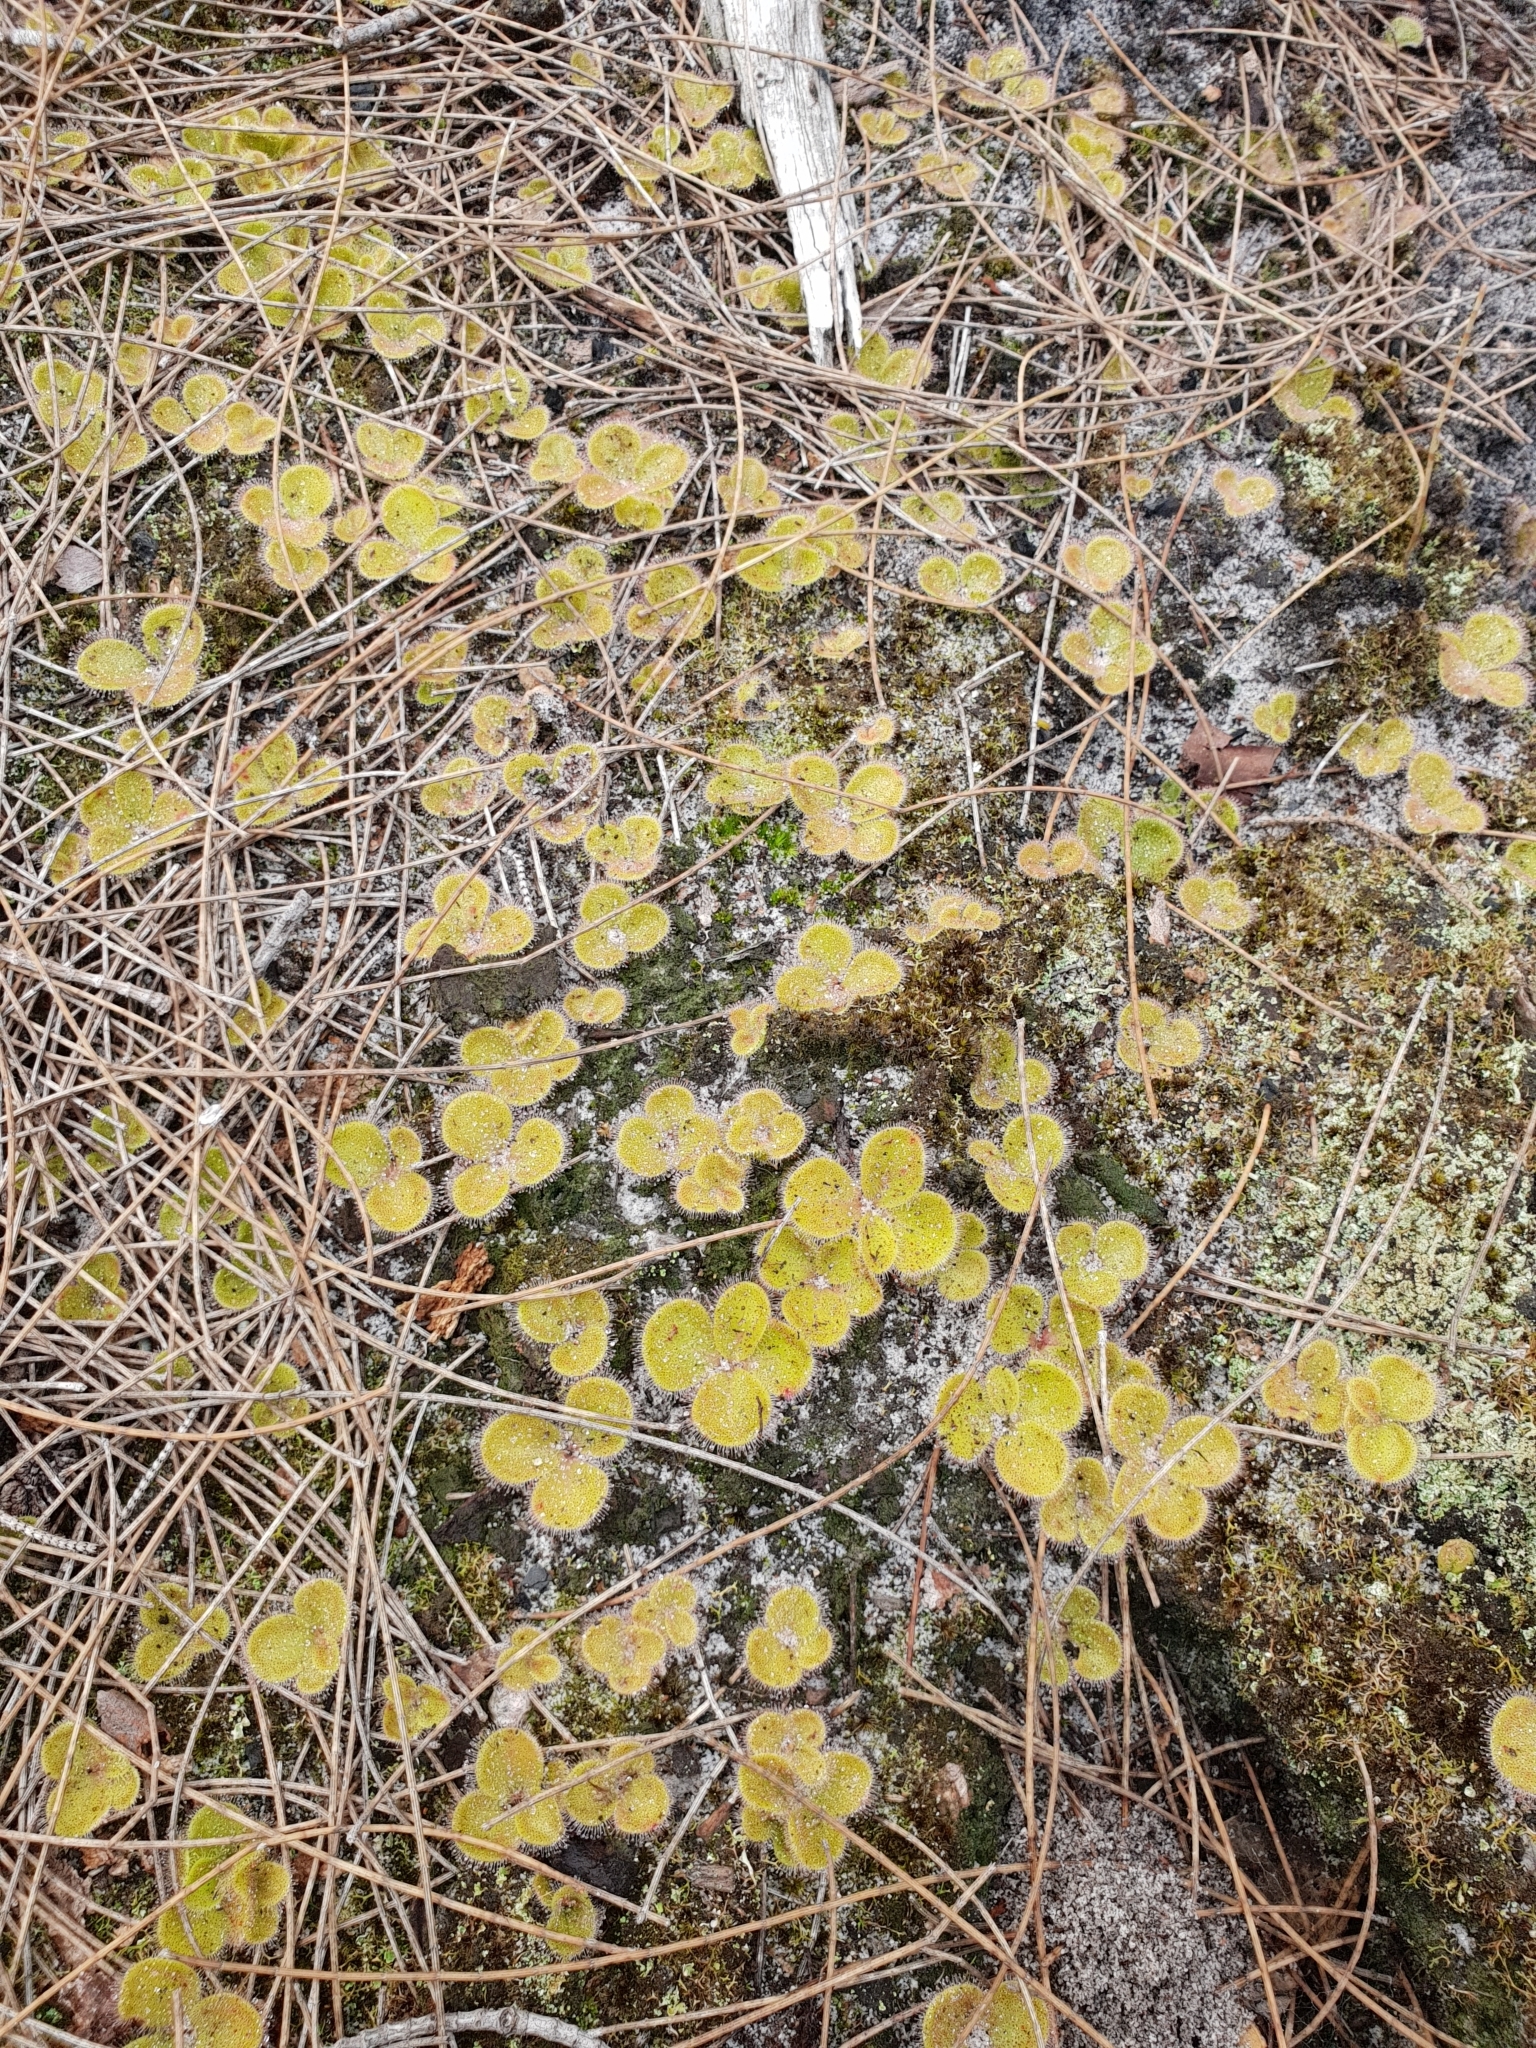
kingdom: Plantae
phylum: Tracheophyta
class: Magnoliopsida
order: Caryophyllales
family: Droseraceae
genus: Drosera
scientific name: Drosera erythrorhiza
